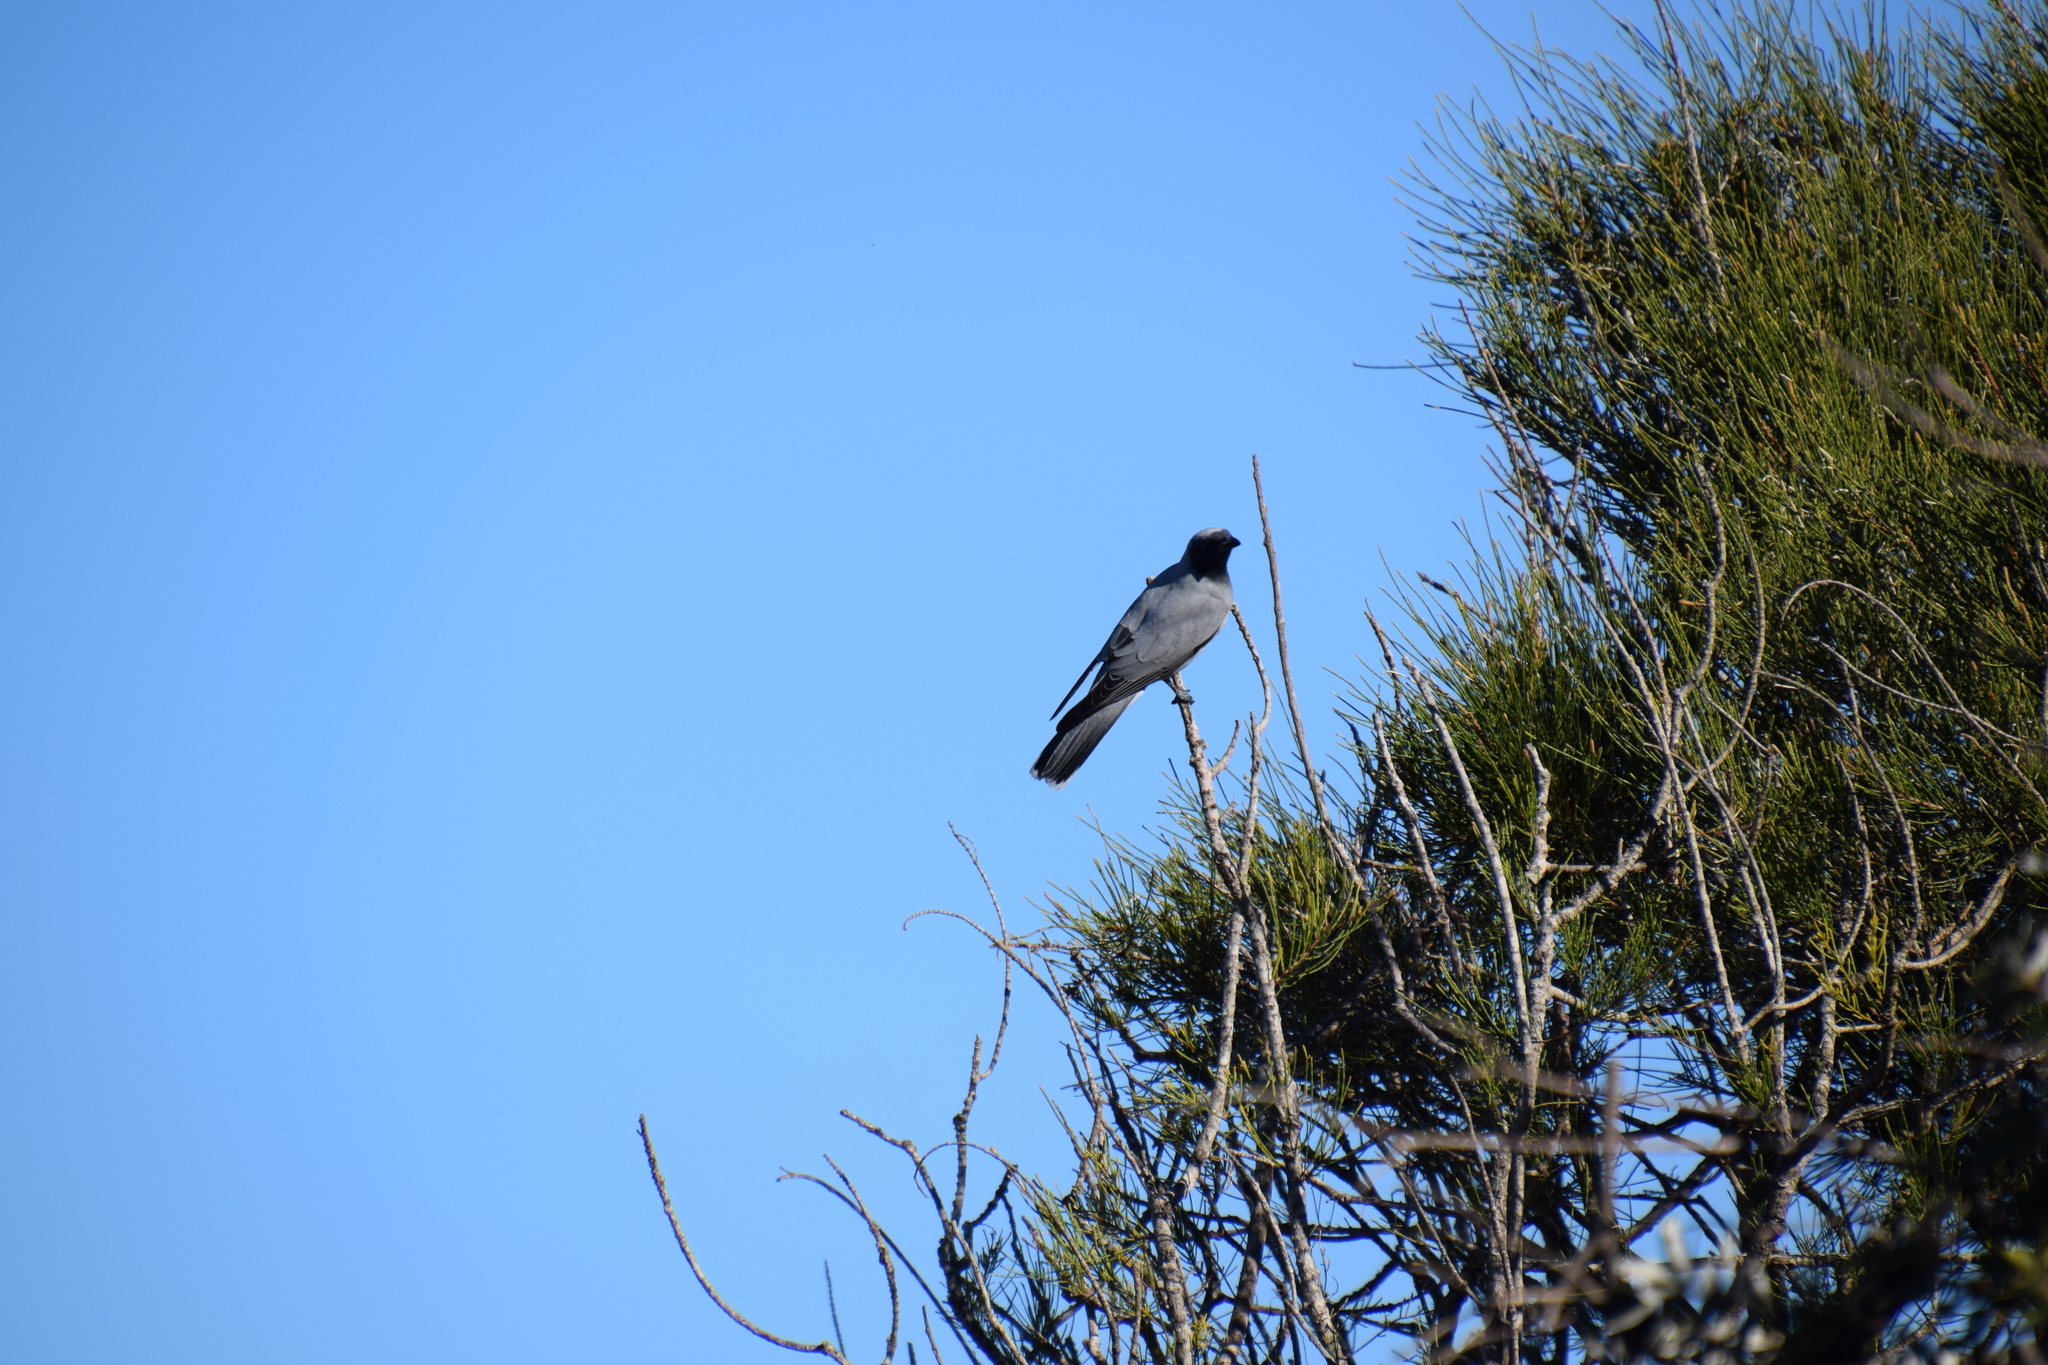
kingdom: Animalia
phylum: Chordata
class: Aves
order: Passeriformes
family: Campephagidae
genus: Coracina
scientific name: Coracina novaehollandiae
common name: Black-faced cuckooshrike
